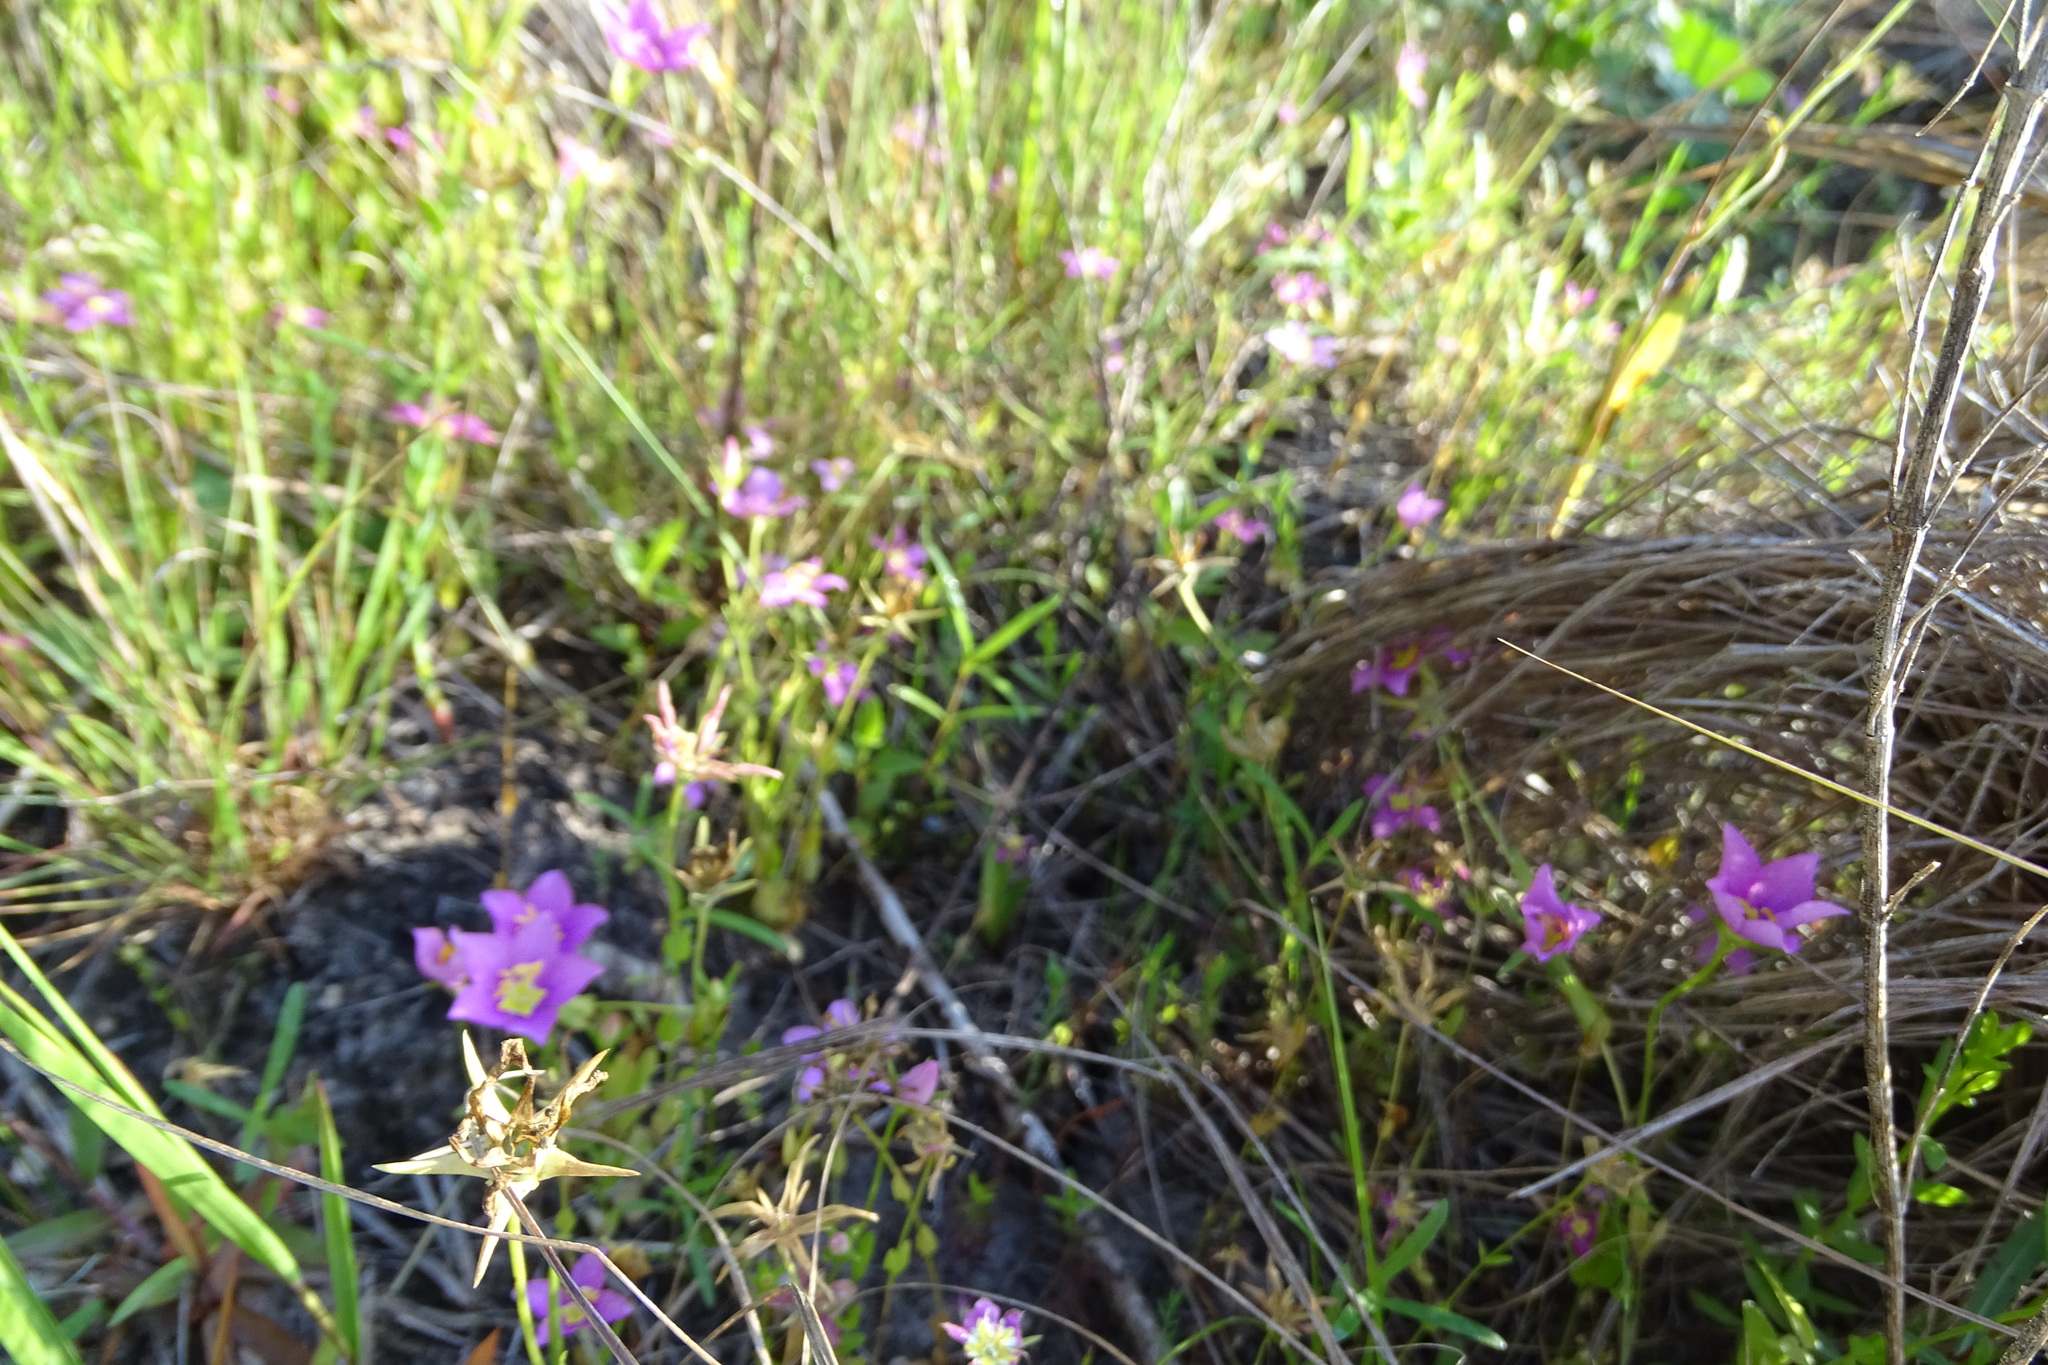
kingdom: Plantae
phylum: Tracheophyta
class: Magnoliopsida
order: Gentianales
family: Gentianaceae
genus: Sabatia
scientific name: Sabatia campestris
